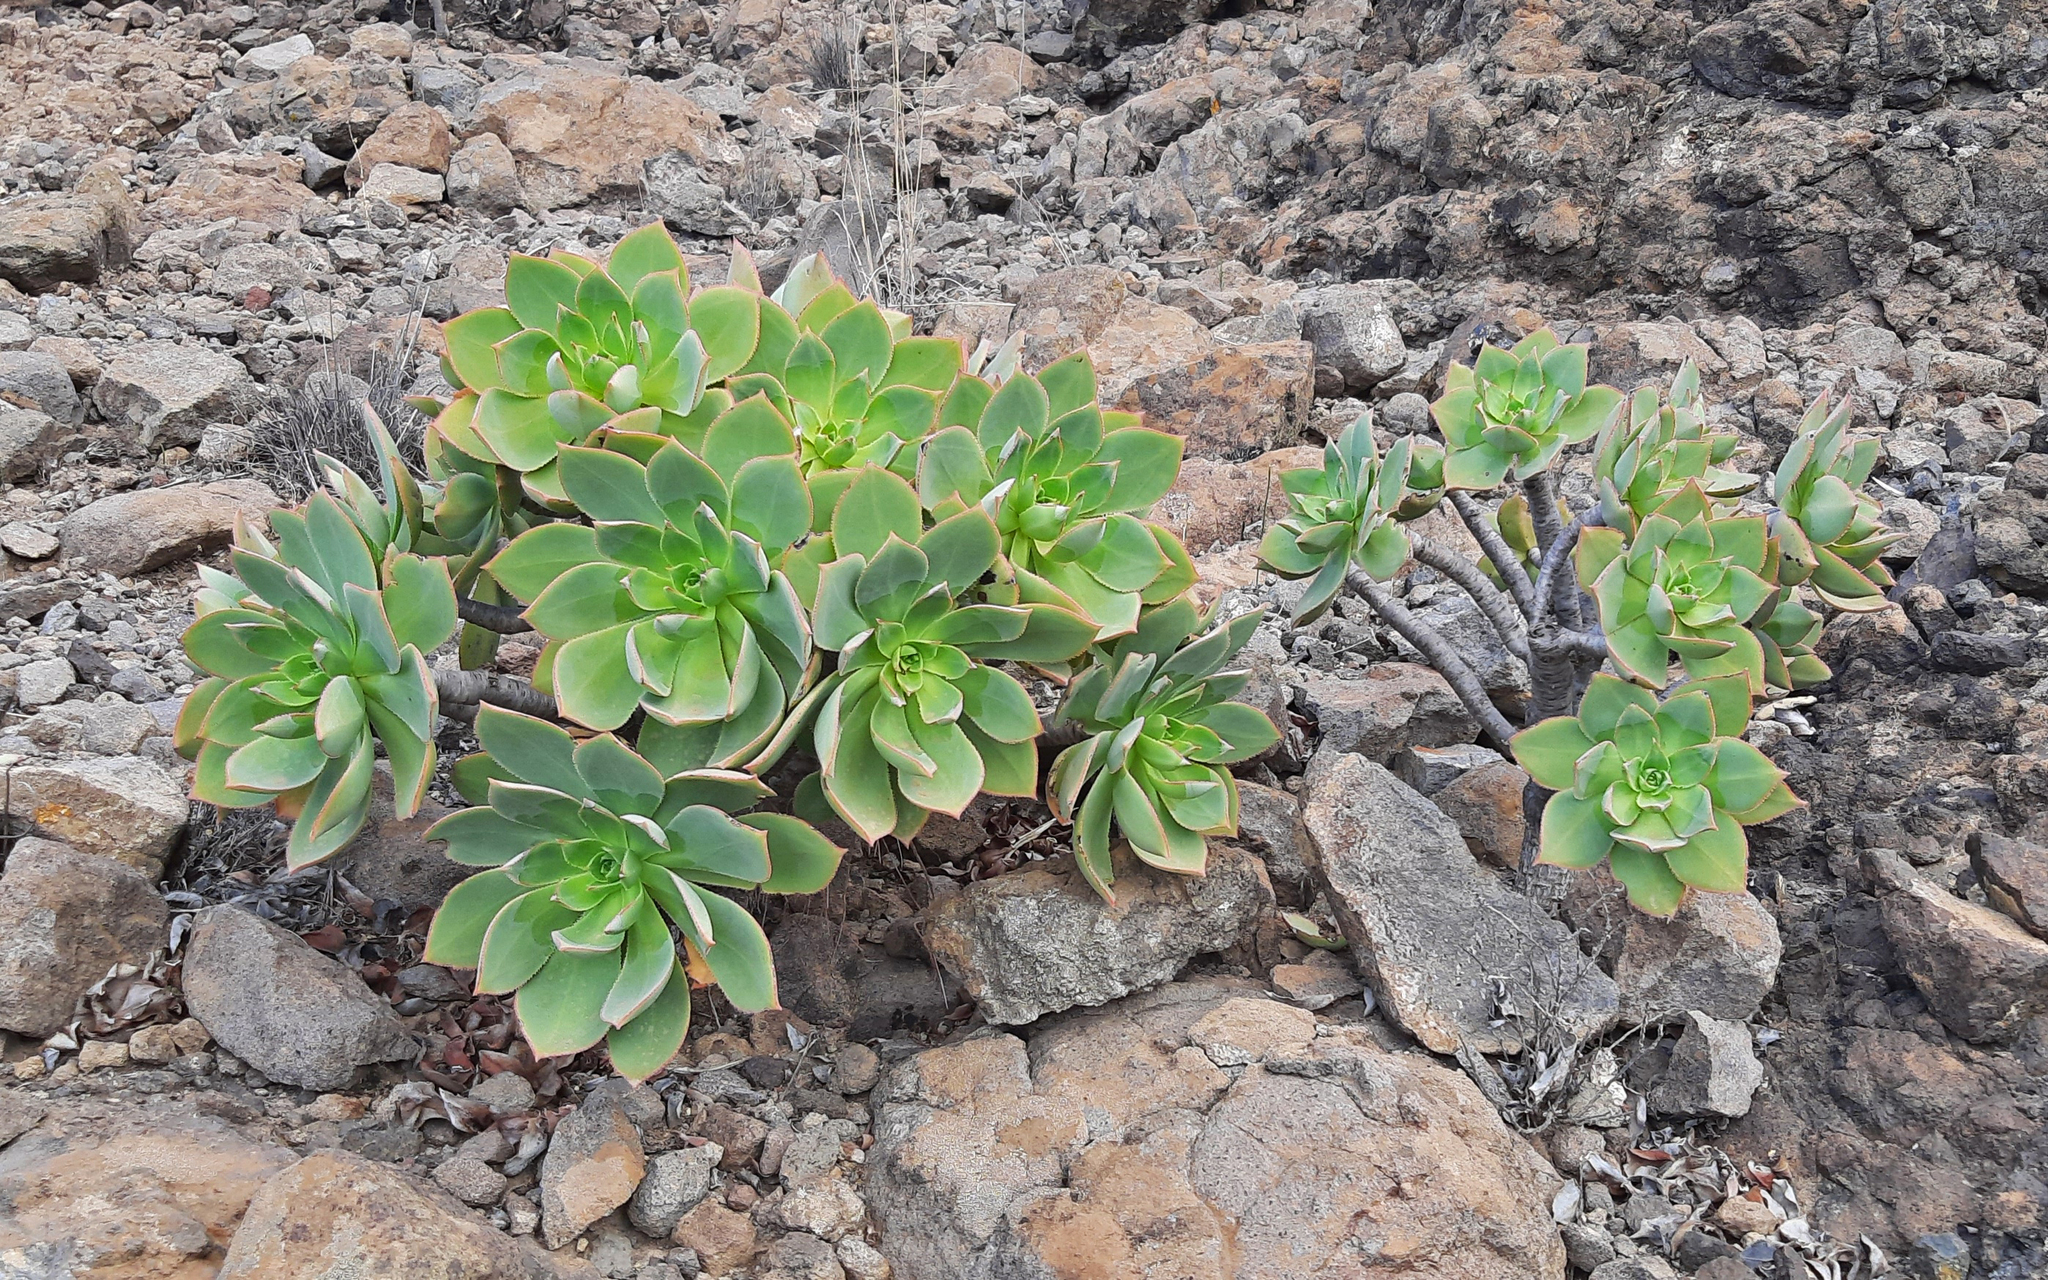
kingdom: Plantae
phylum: Tracheophyta
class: Magnoliopsida
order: Saxifragales
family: Crassulaceae
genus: Aeonium
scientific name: Aeonium percarneum
